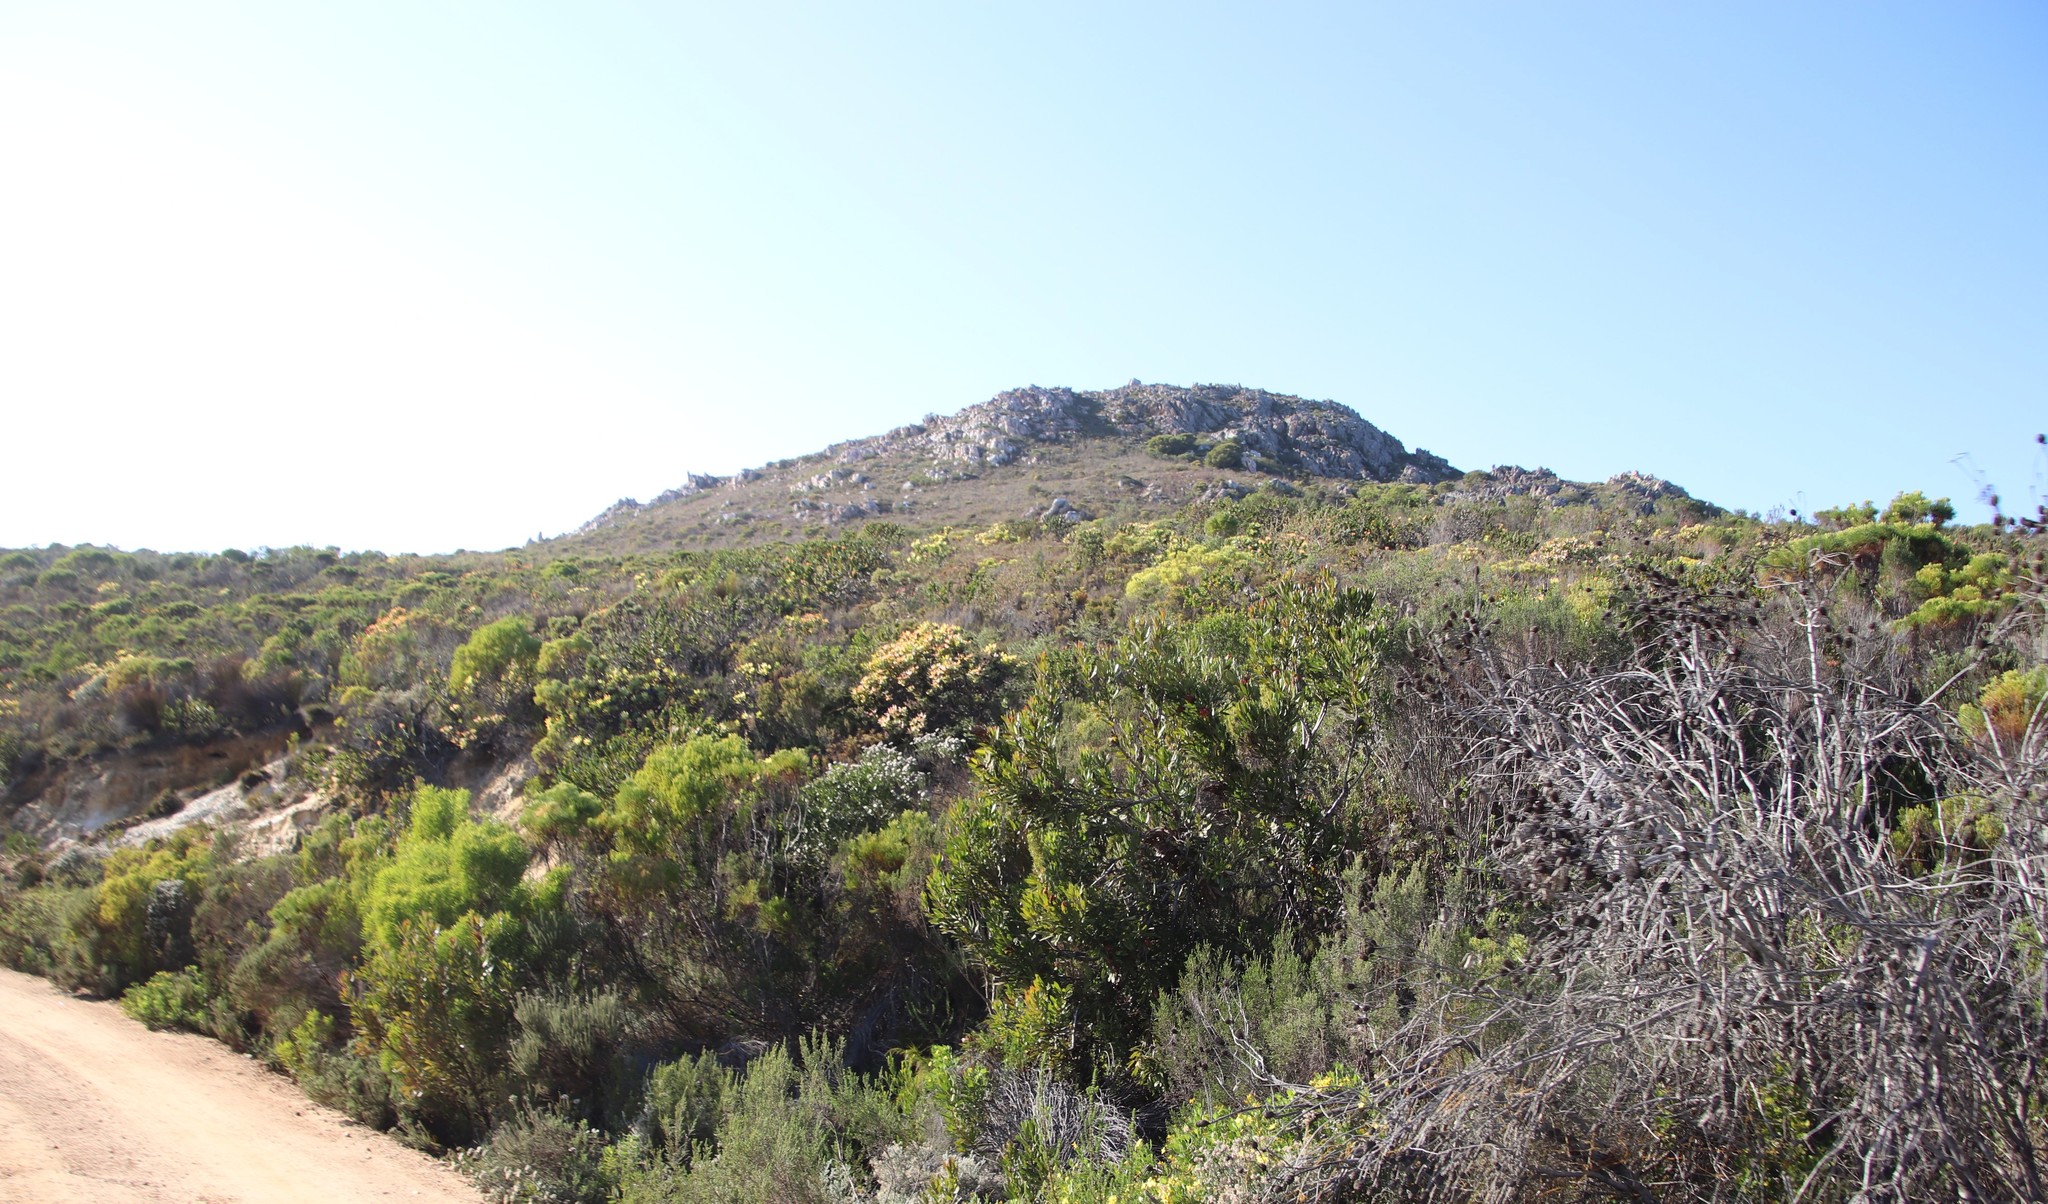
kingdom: Plantae
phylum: Tracheophyta
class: Magnoliopsida
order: Proteales
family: Proteaceae
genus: Leucadendron
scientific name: Leucadendron tinctum
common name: Spicy conebush
